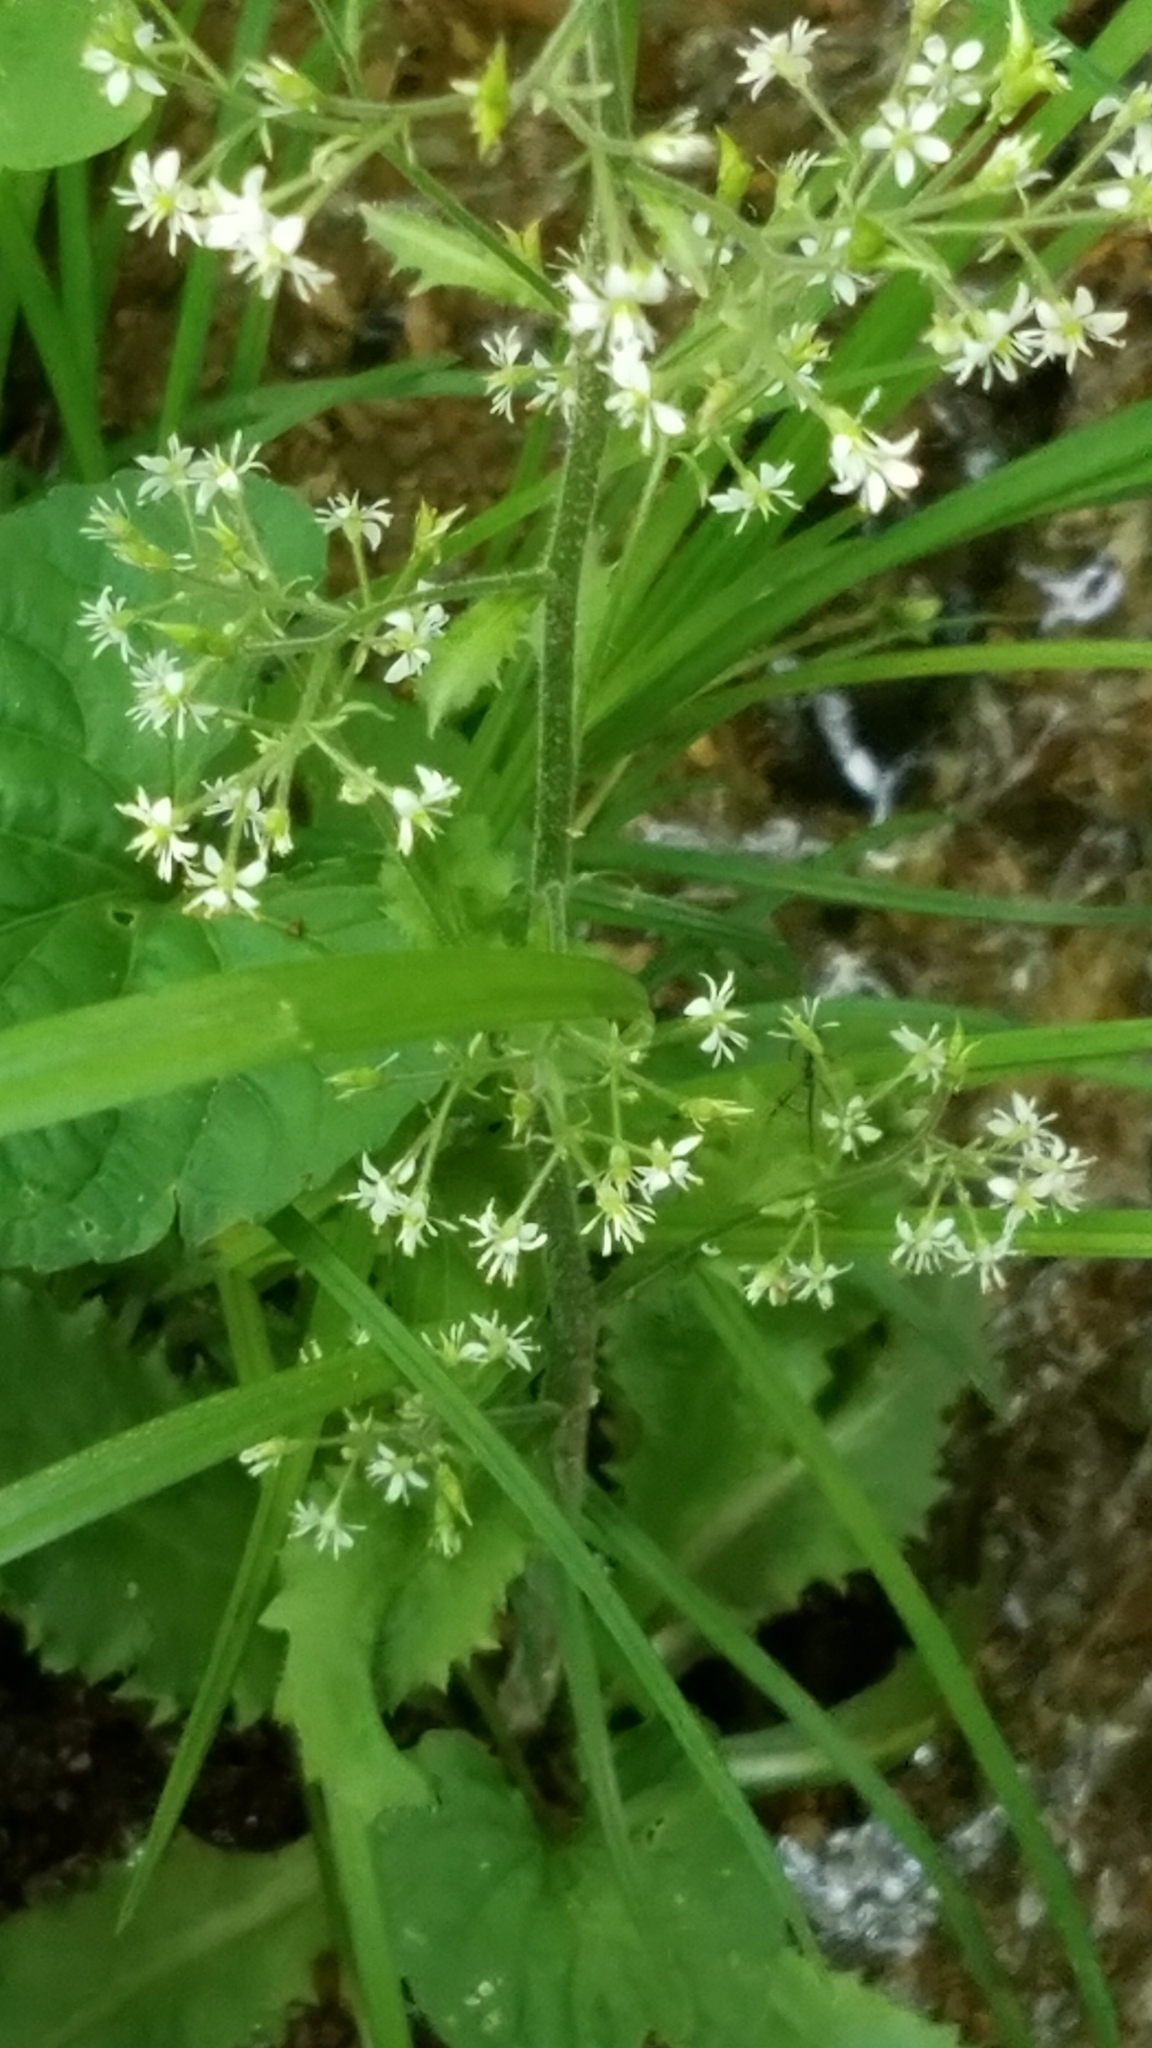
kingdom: Plantae
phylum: Tracheophyta
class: Magnoliopsida
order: Saxifragales
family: Saxifragaceae
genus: Micranthes
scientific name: Micranthes micranthidifolia
